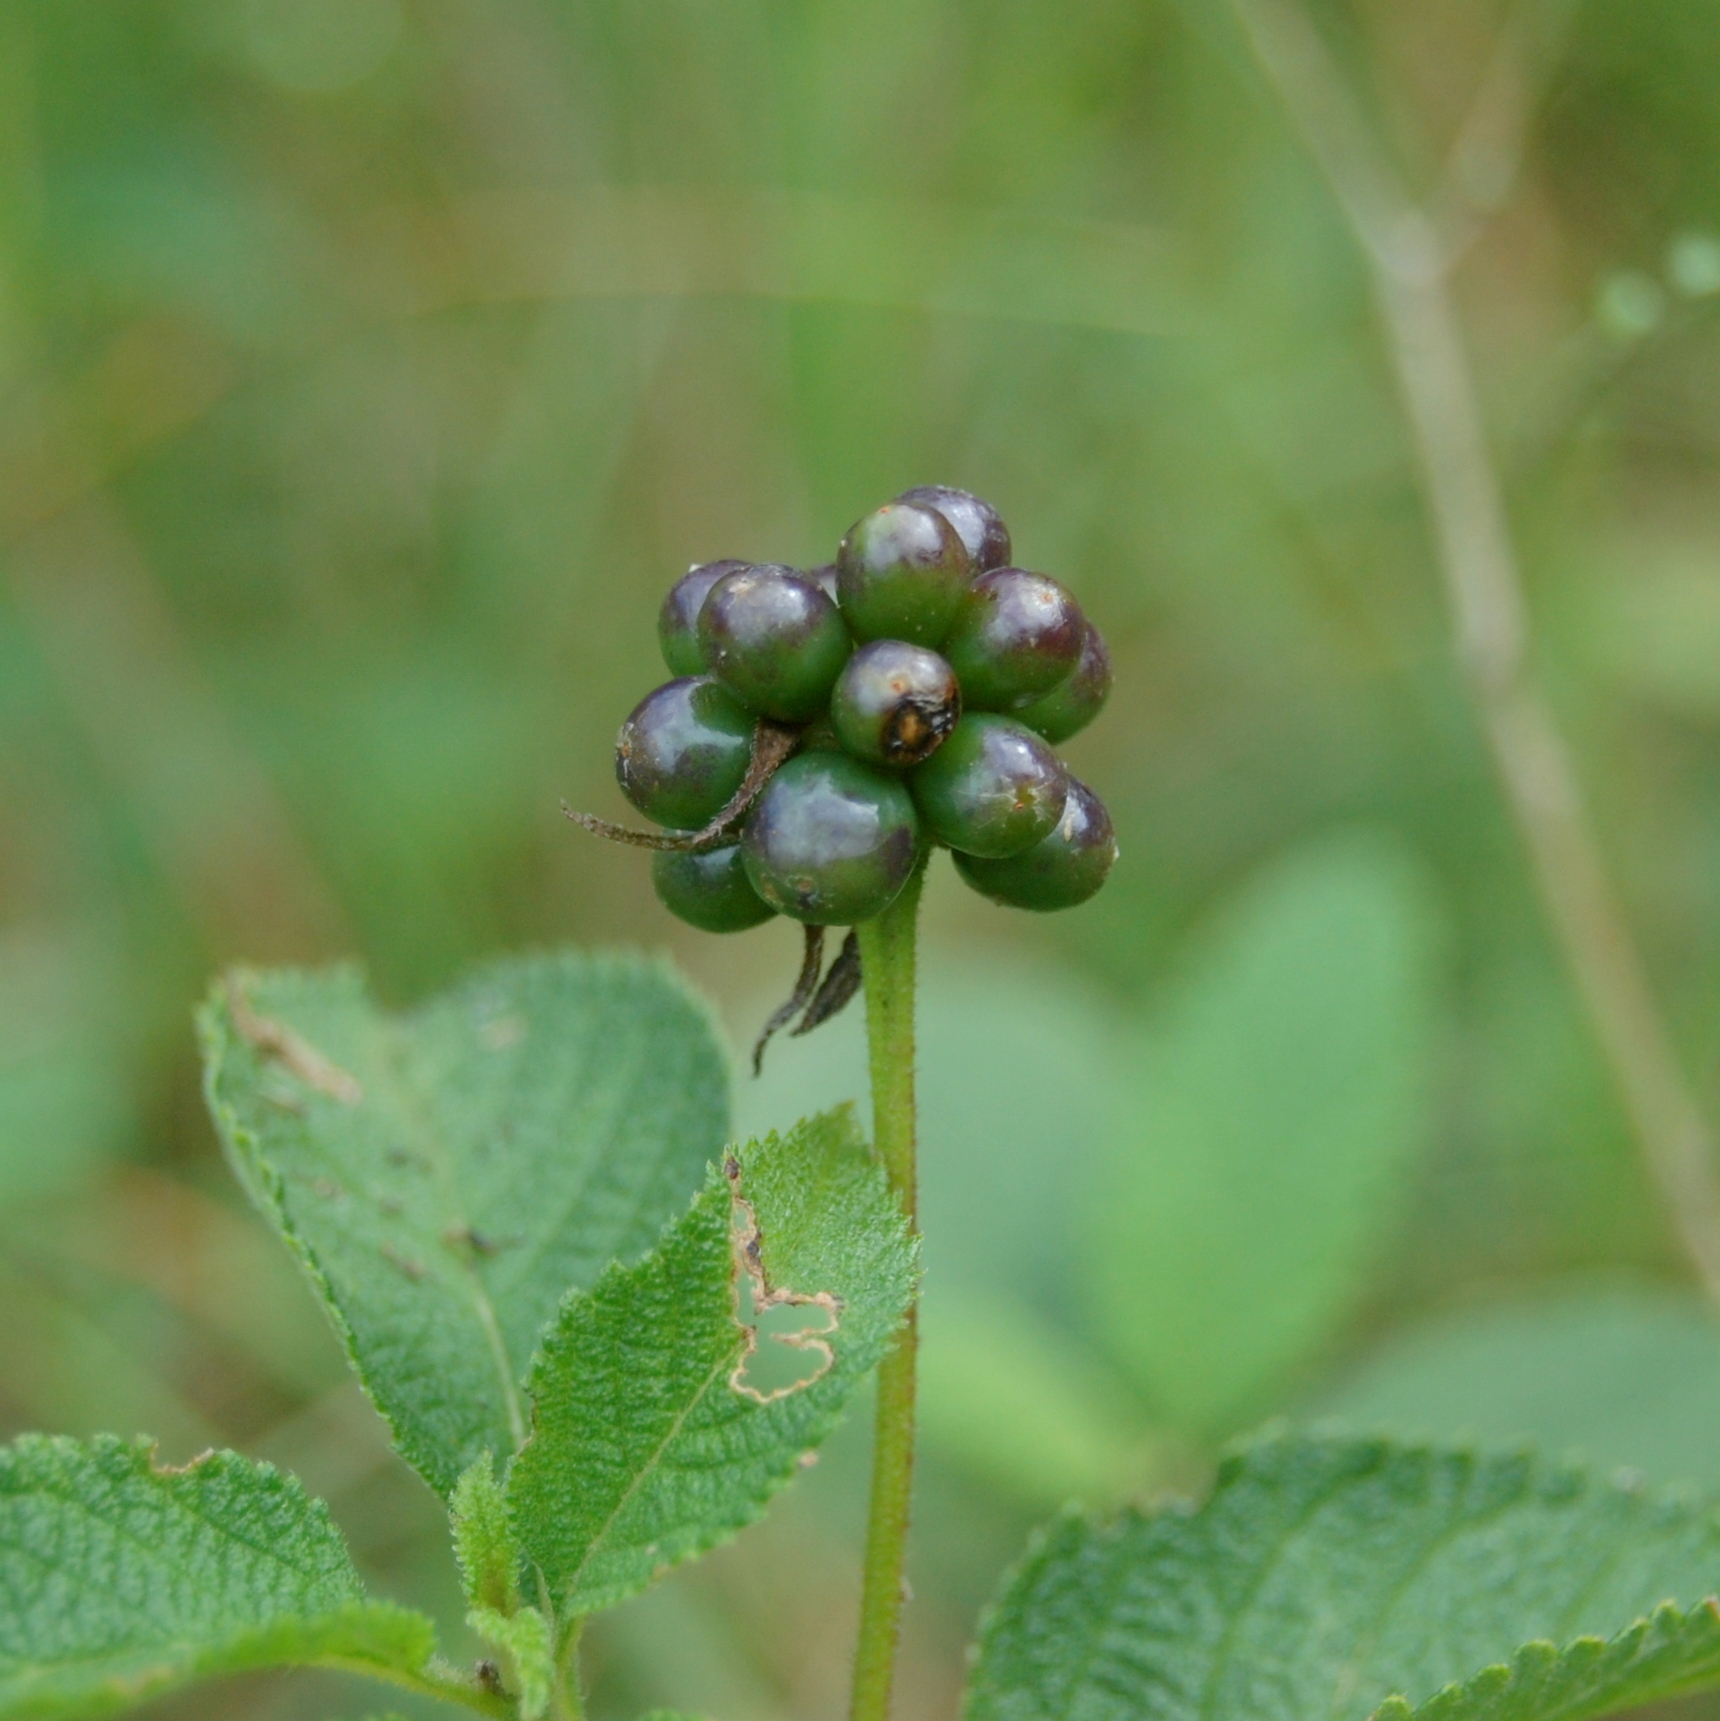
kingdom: Plantae
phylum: Tracheophyta
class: Magnoliopsida
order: Lamiales
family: Verbenaceae
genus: Lantana
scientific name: Lantana camara
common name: Lantana
